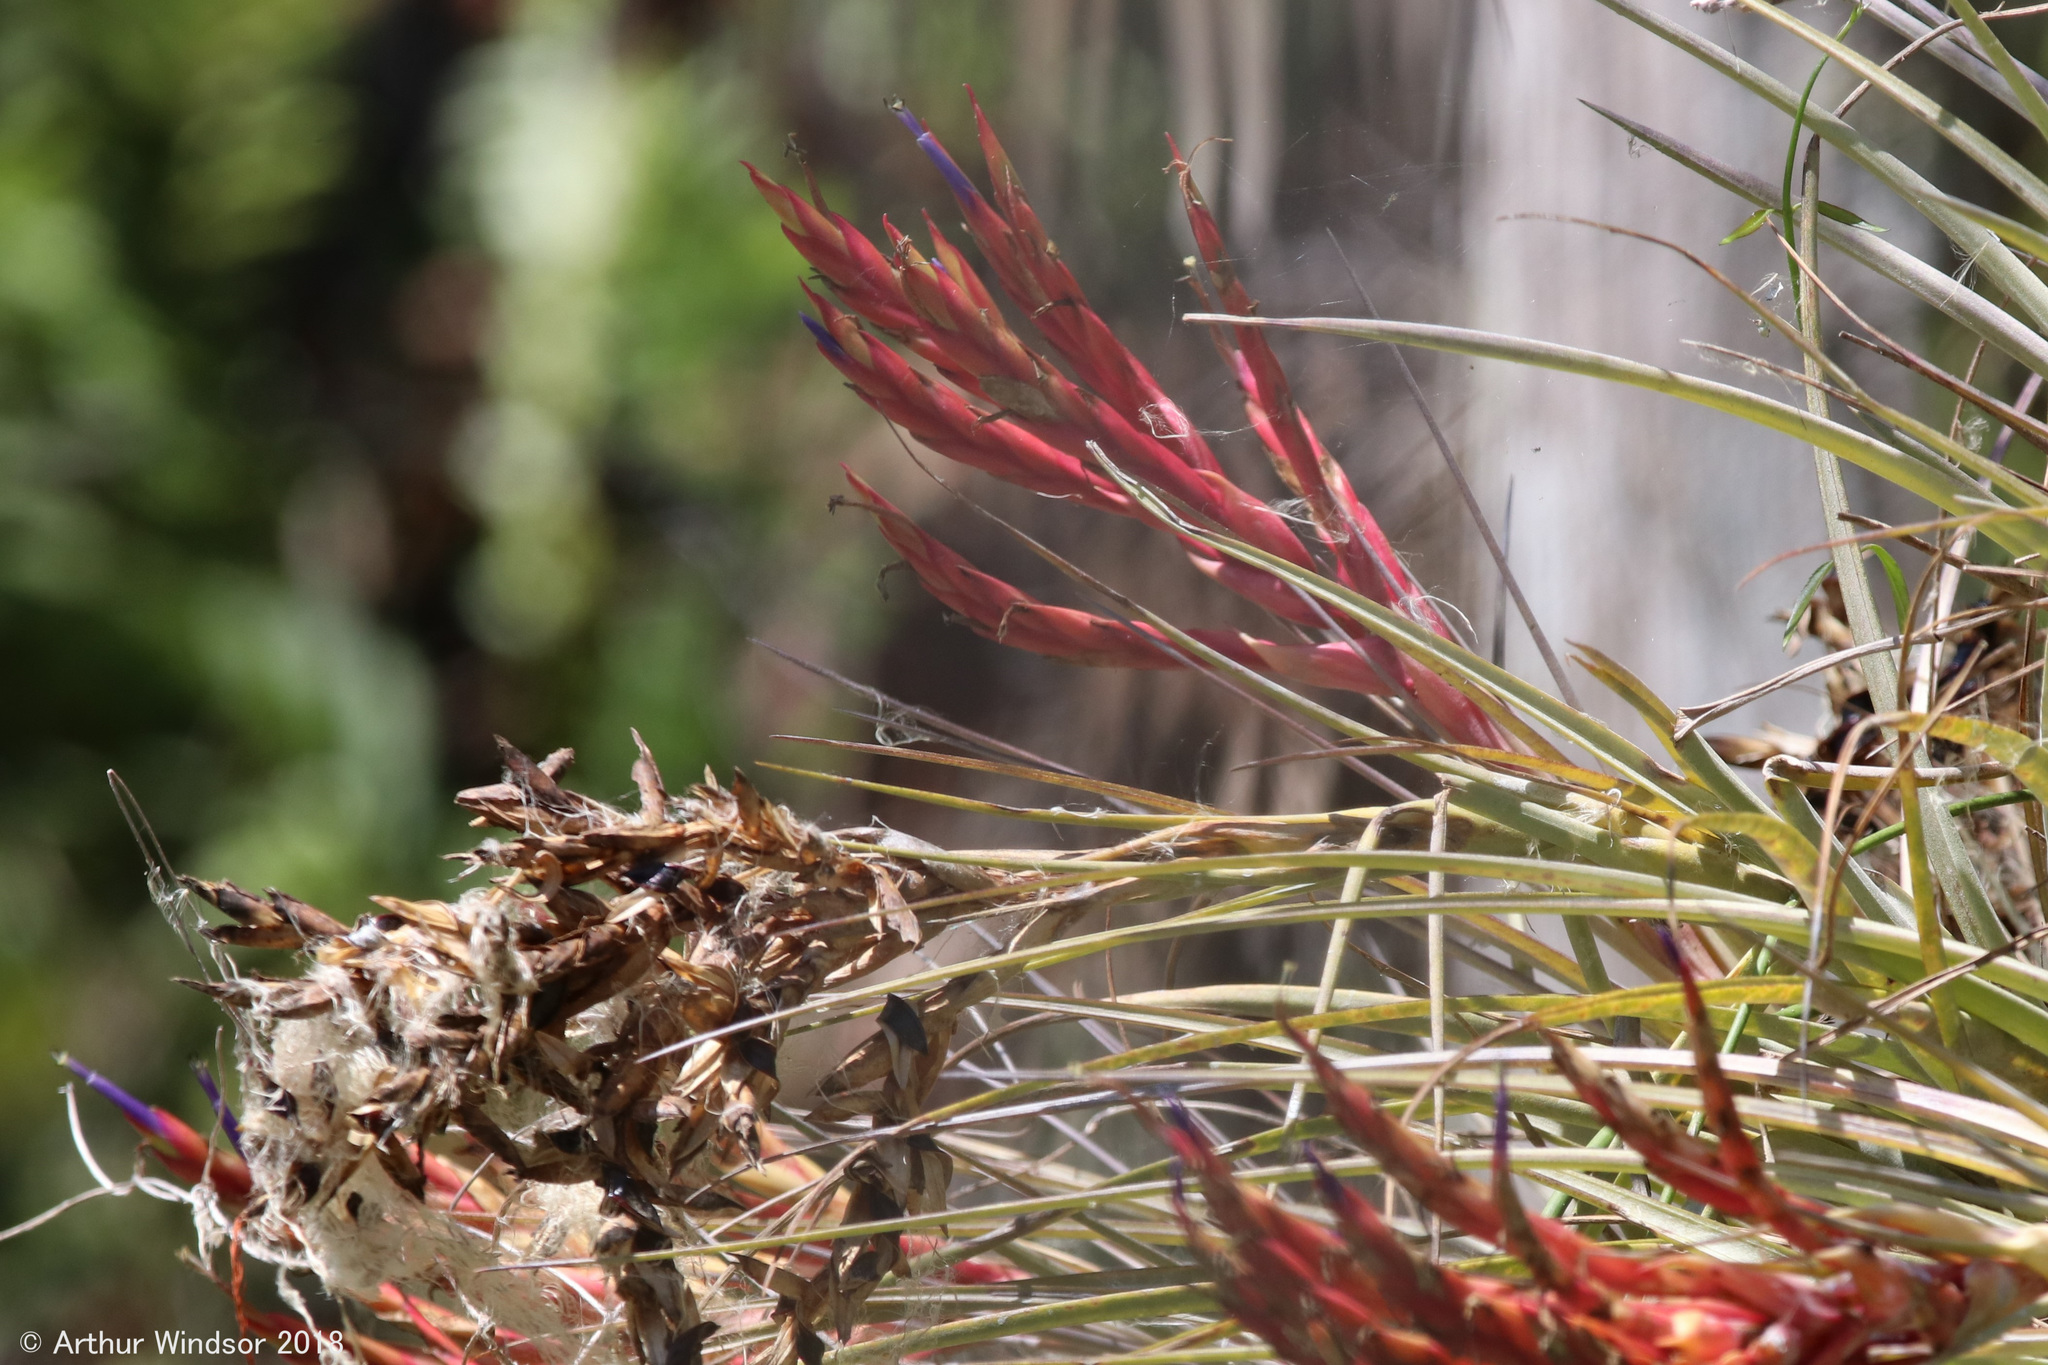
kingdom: Plantae
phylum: Tracheophyta
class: Liliopsida
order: Poales
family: Bromeliaceae
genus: Tillandsia
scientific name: Tillandsia fasciculata
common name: Giant airplant
